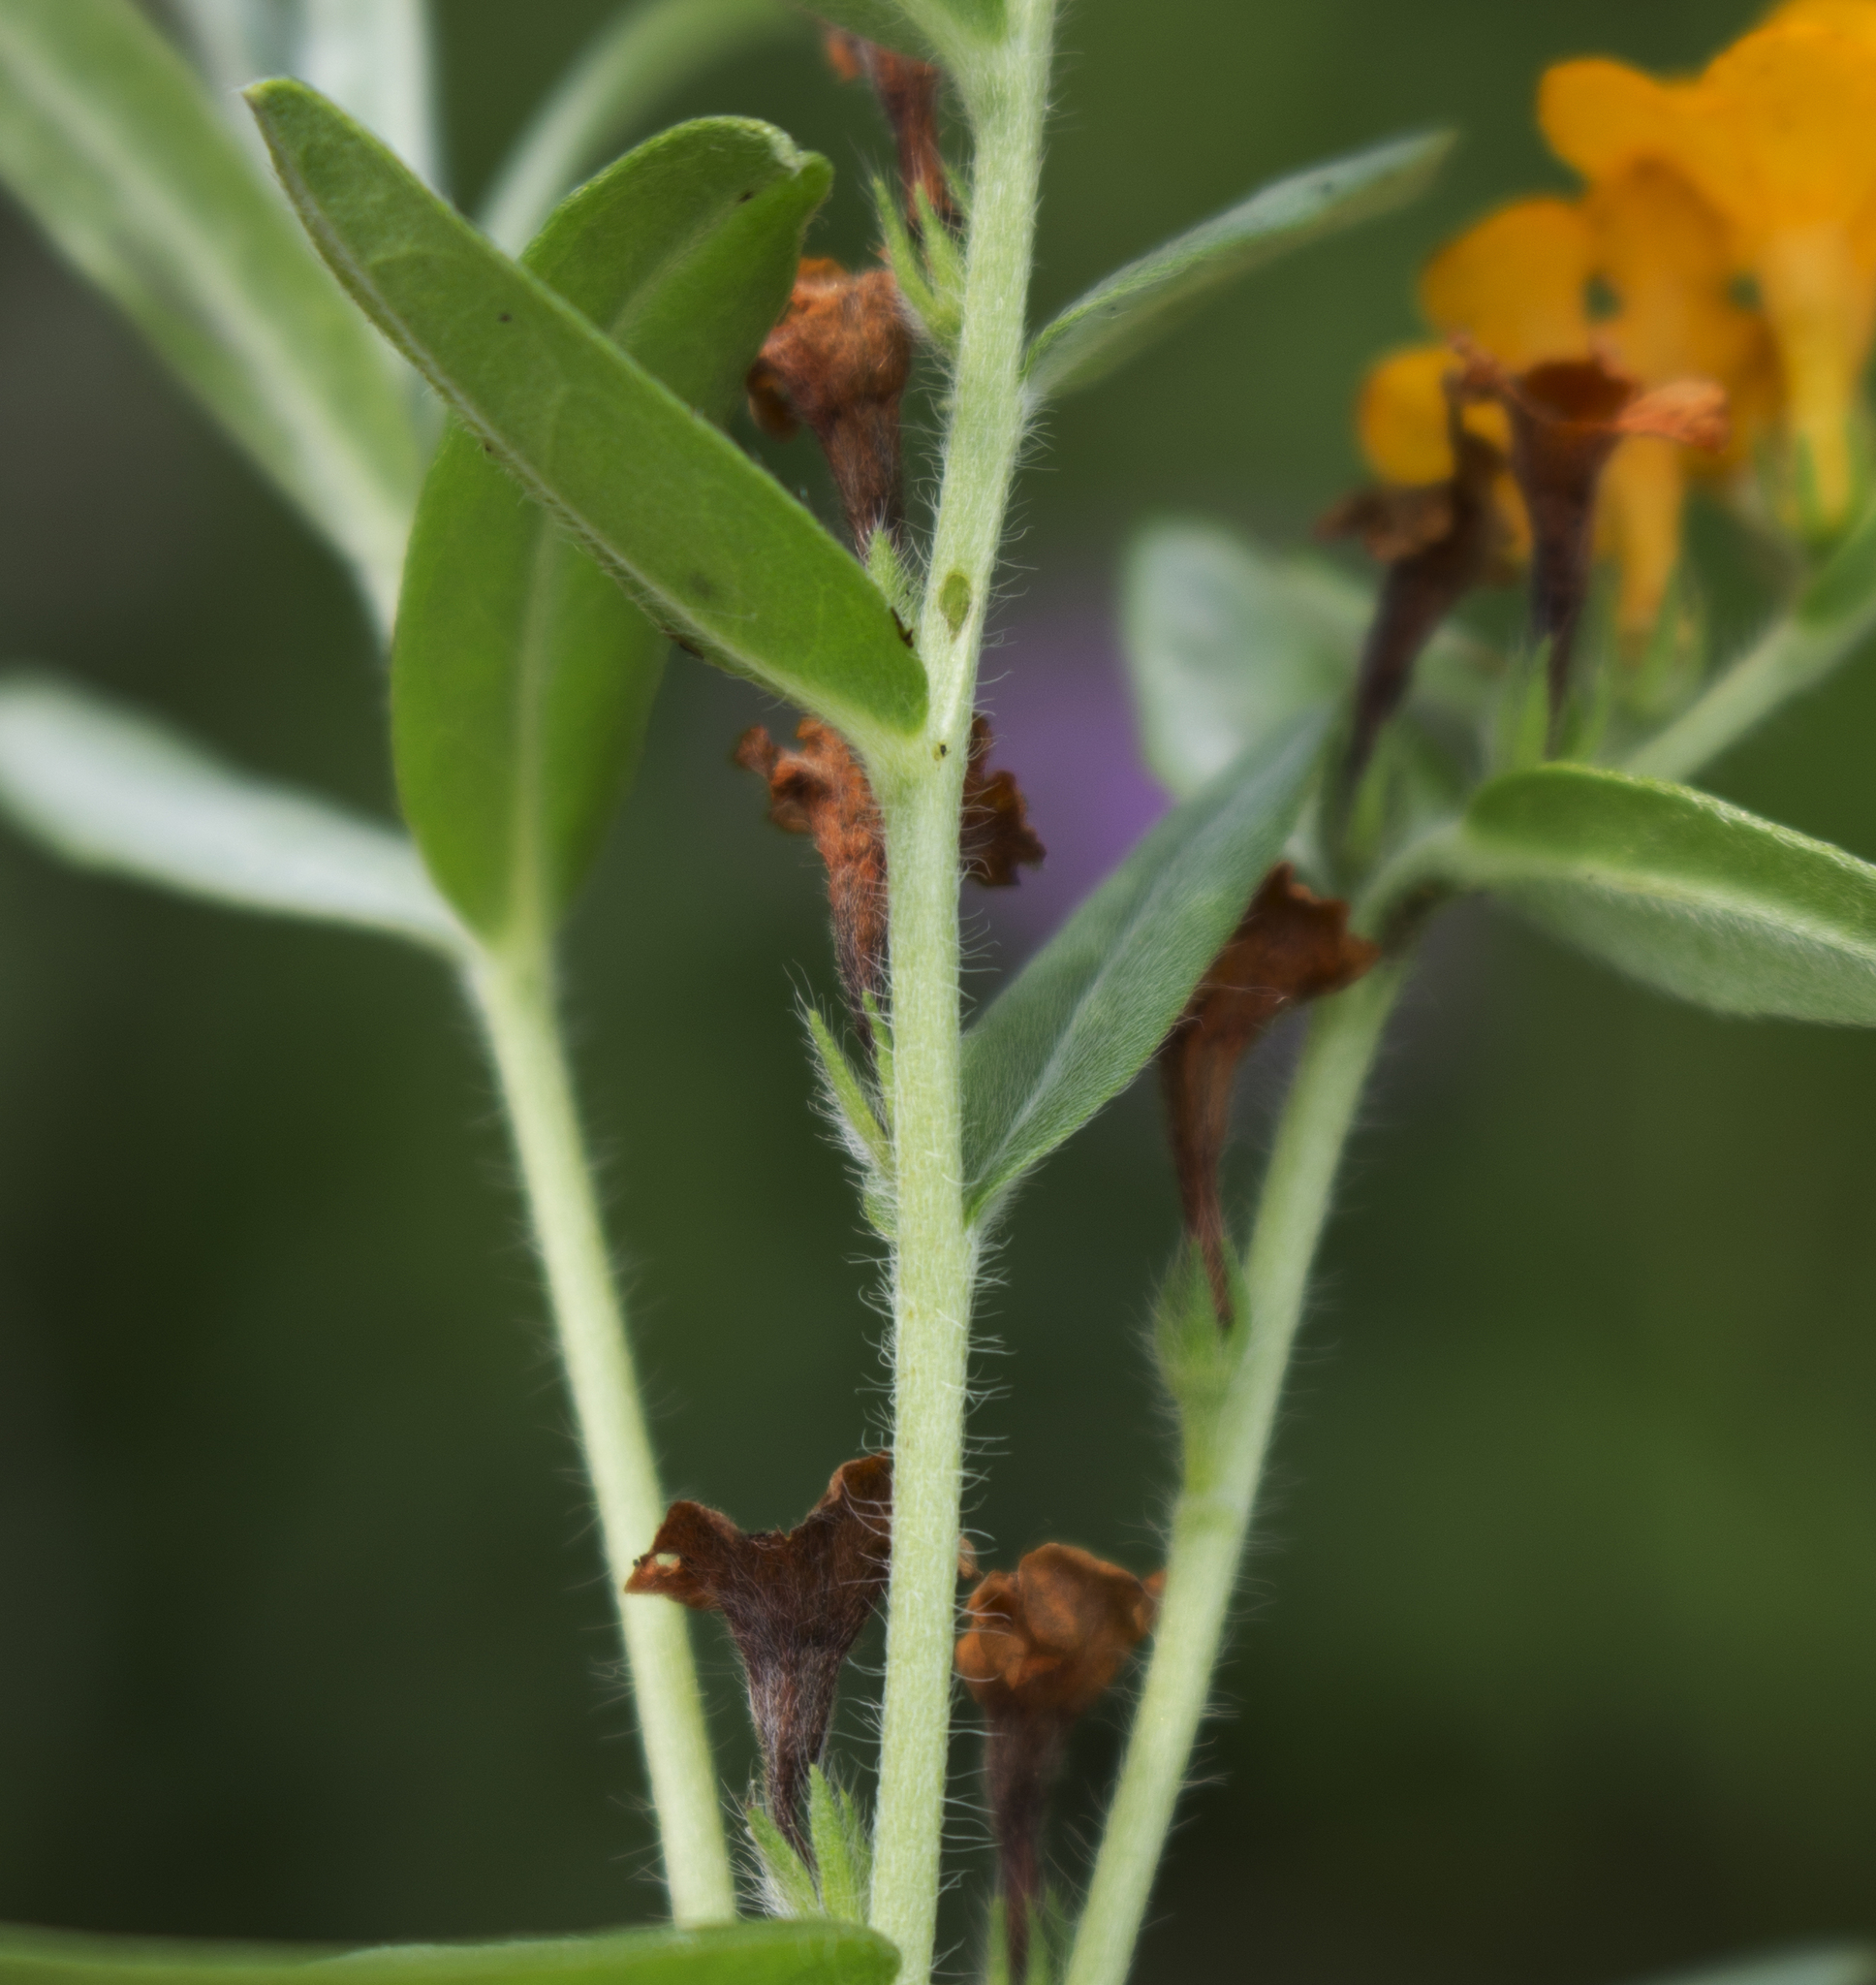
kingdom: Plantae
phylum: Tracheophyta
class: Magnoliopsida
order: Boraginales
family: Boraginaceae
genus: Lithospermum
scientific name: Lithospermum canescens
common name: Hoary puccoon
